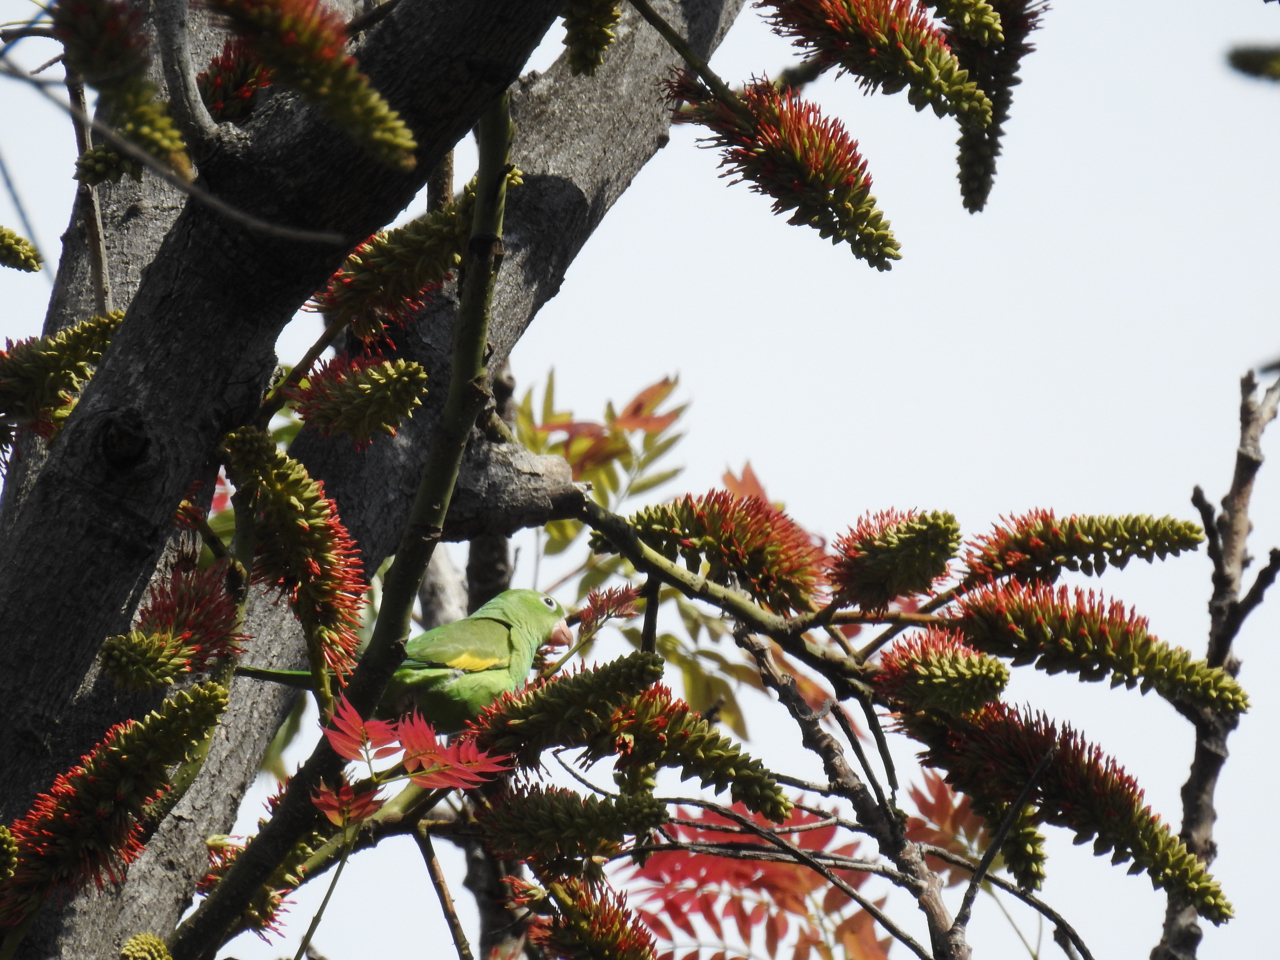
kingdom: Animalia
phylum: Chordata
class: Aves
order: Psittaciformes
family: Psittacidae
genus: Brotogeris
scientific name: Brotogeris chiriri
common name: Yellow-chevroned parakeet
